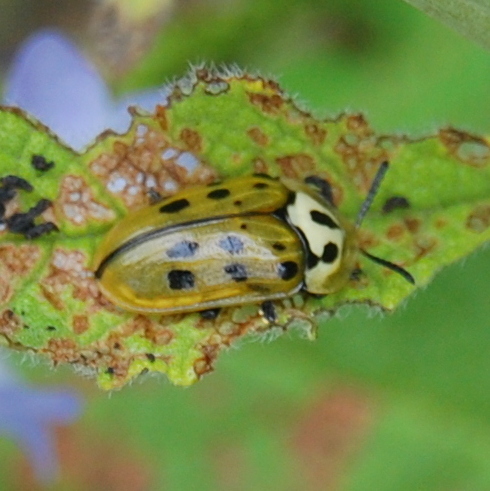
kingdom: Animalia
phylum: Arthropoda
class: Insecta
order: Coleoptera
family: Chrysomelidae
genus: Eurypedus
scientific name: Eurypedus peltoides
